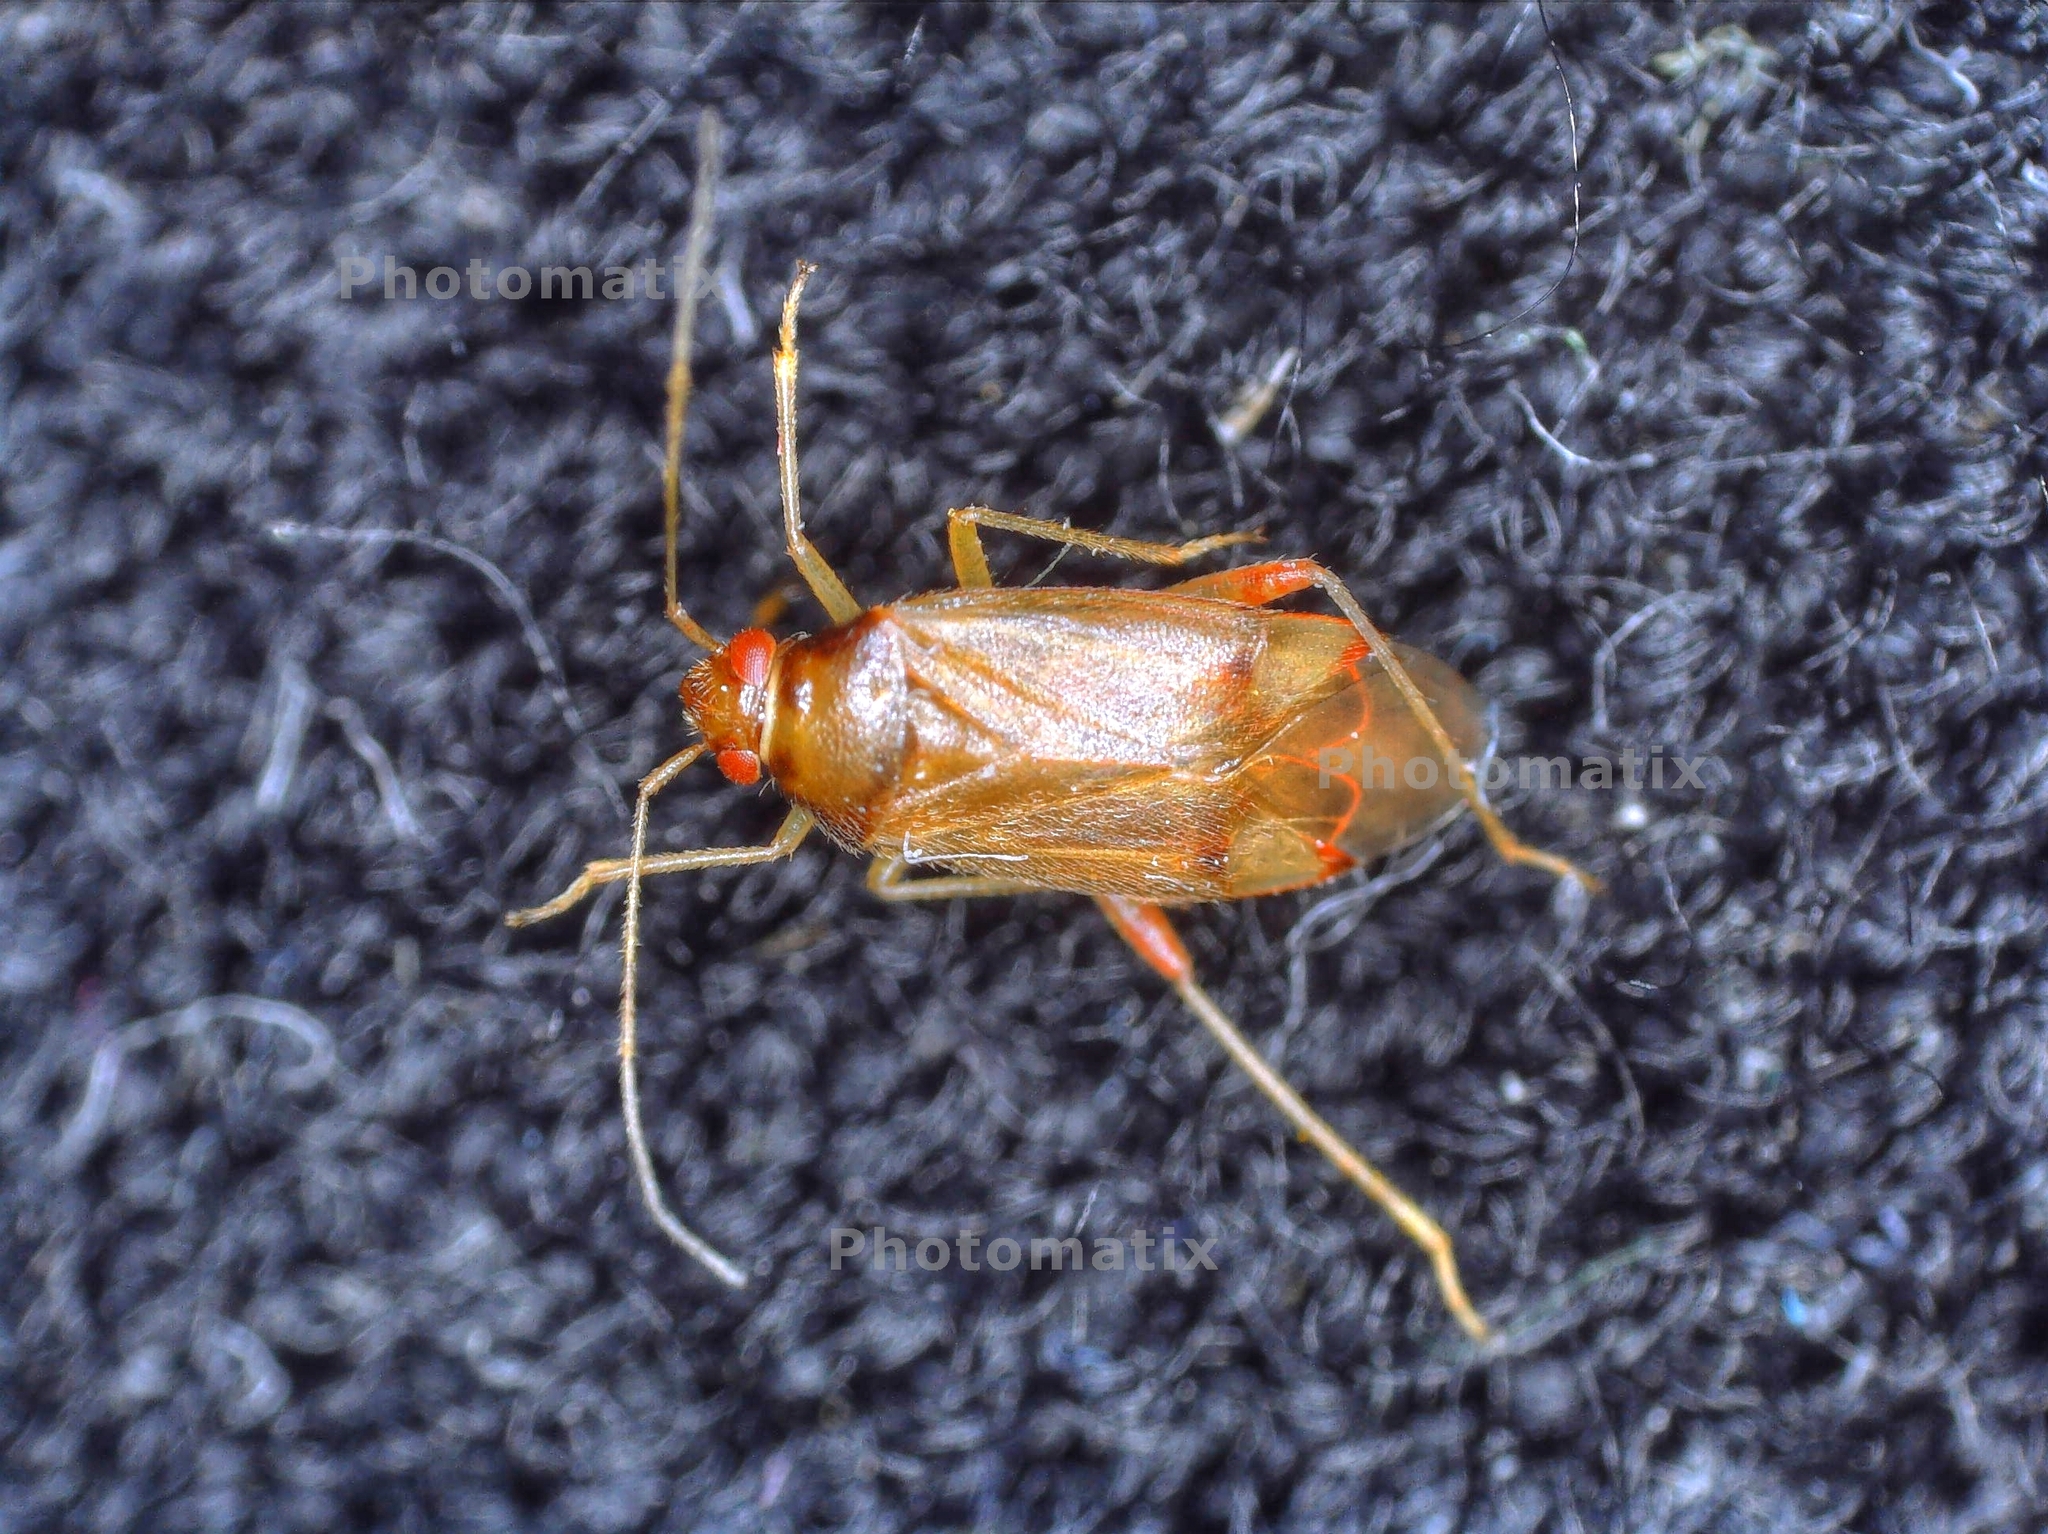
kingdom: Animalia
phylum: Arthropoda
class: Insecta
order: Hemiptera
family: Miridae
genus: Pinalitus
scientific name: Pinalitus rubricatus
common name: Plant bug
